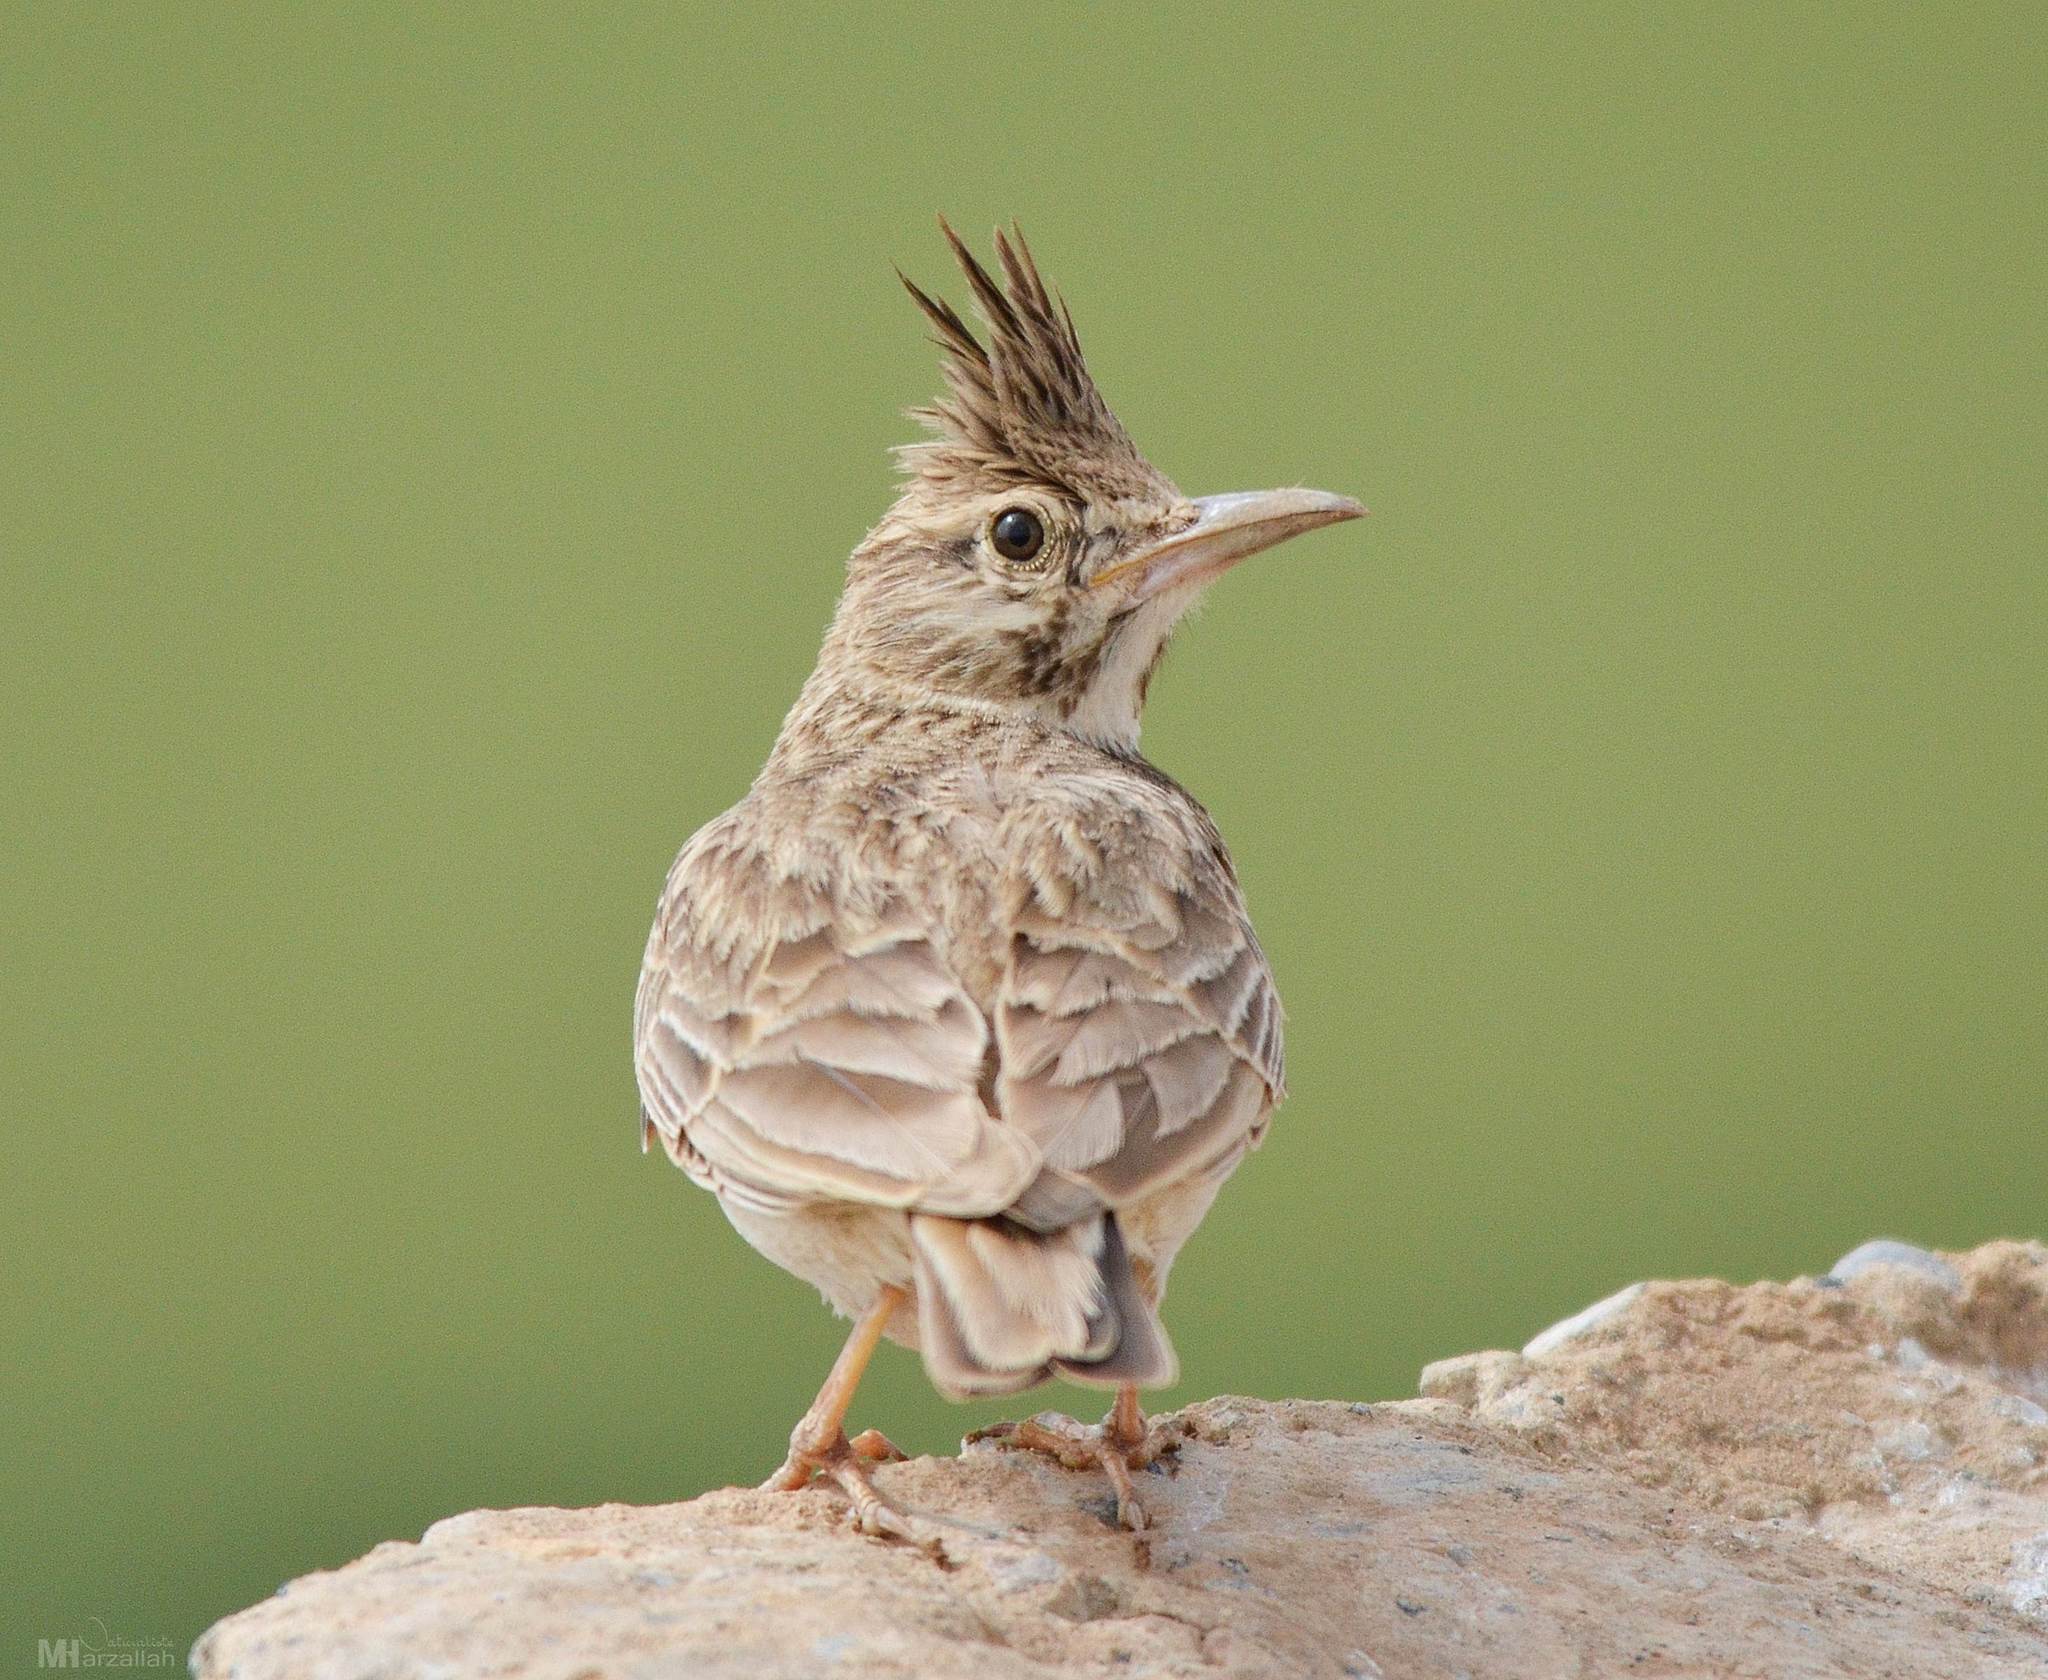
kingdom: Animalia
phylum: Chordata
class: Aves
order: Passeriformes
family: Alaudidae
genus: Galerida
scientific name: Galerida cristata
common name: Crested lark
